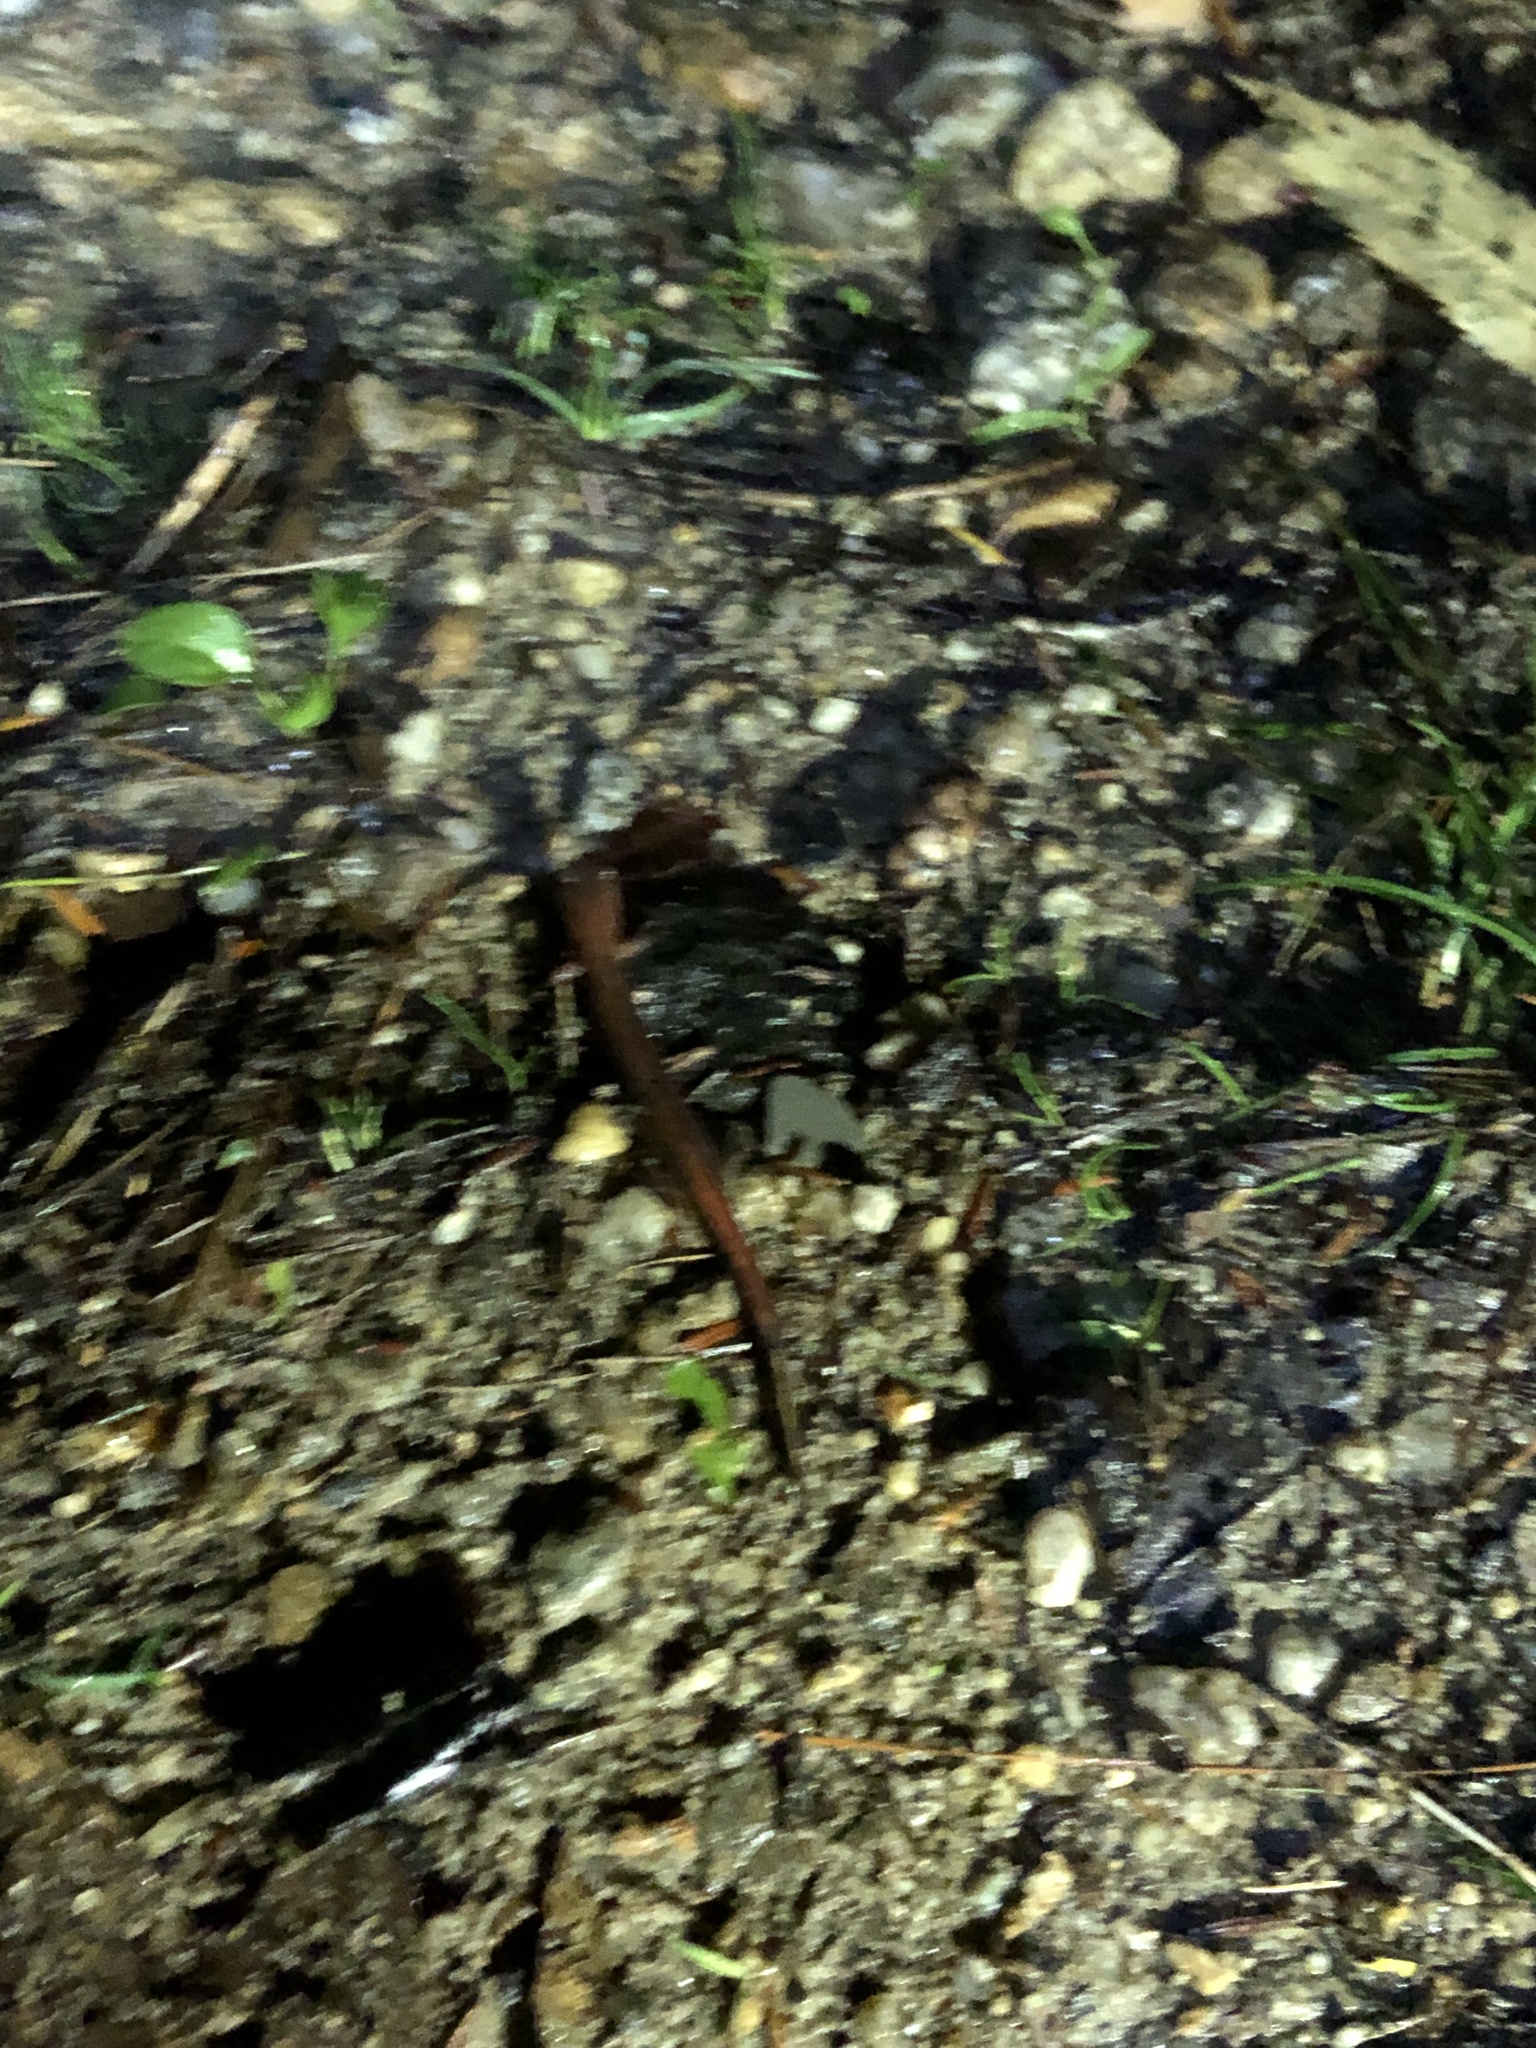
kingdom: Animalia
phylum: Chordata
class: Amphibia
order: Caudata
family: Plethodontidae
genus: Plethodon
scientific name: Plethodon cinereus
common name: Redback salamander
